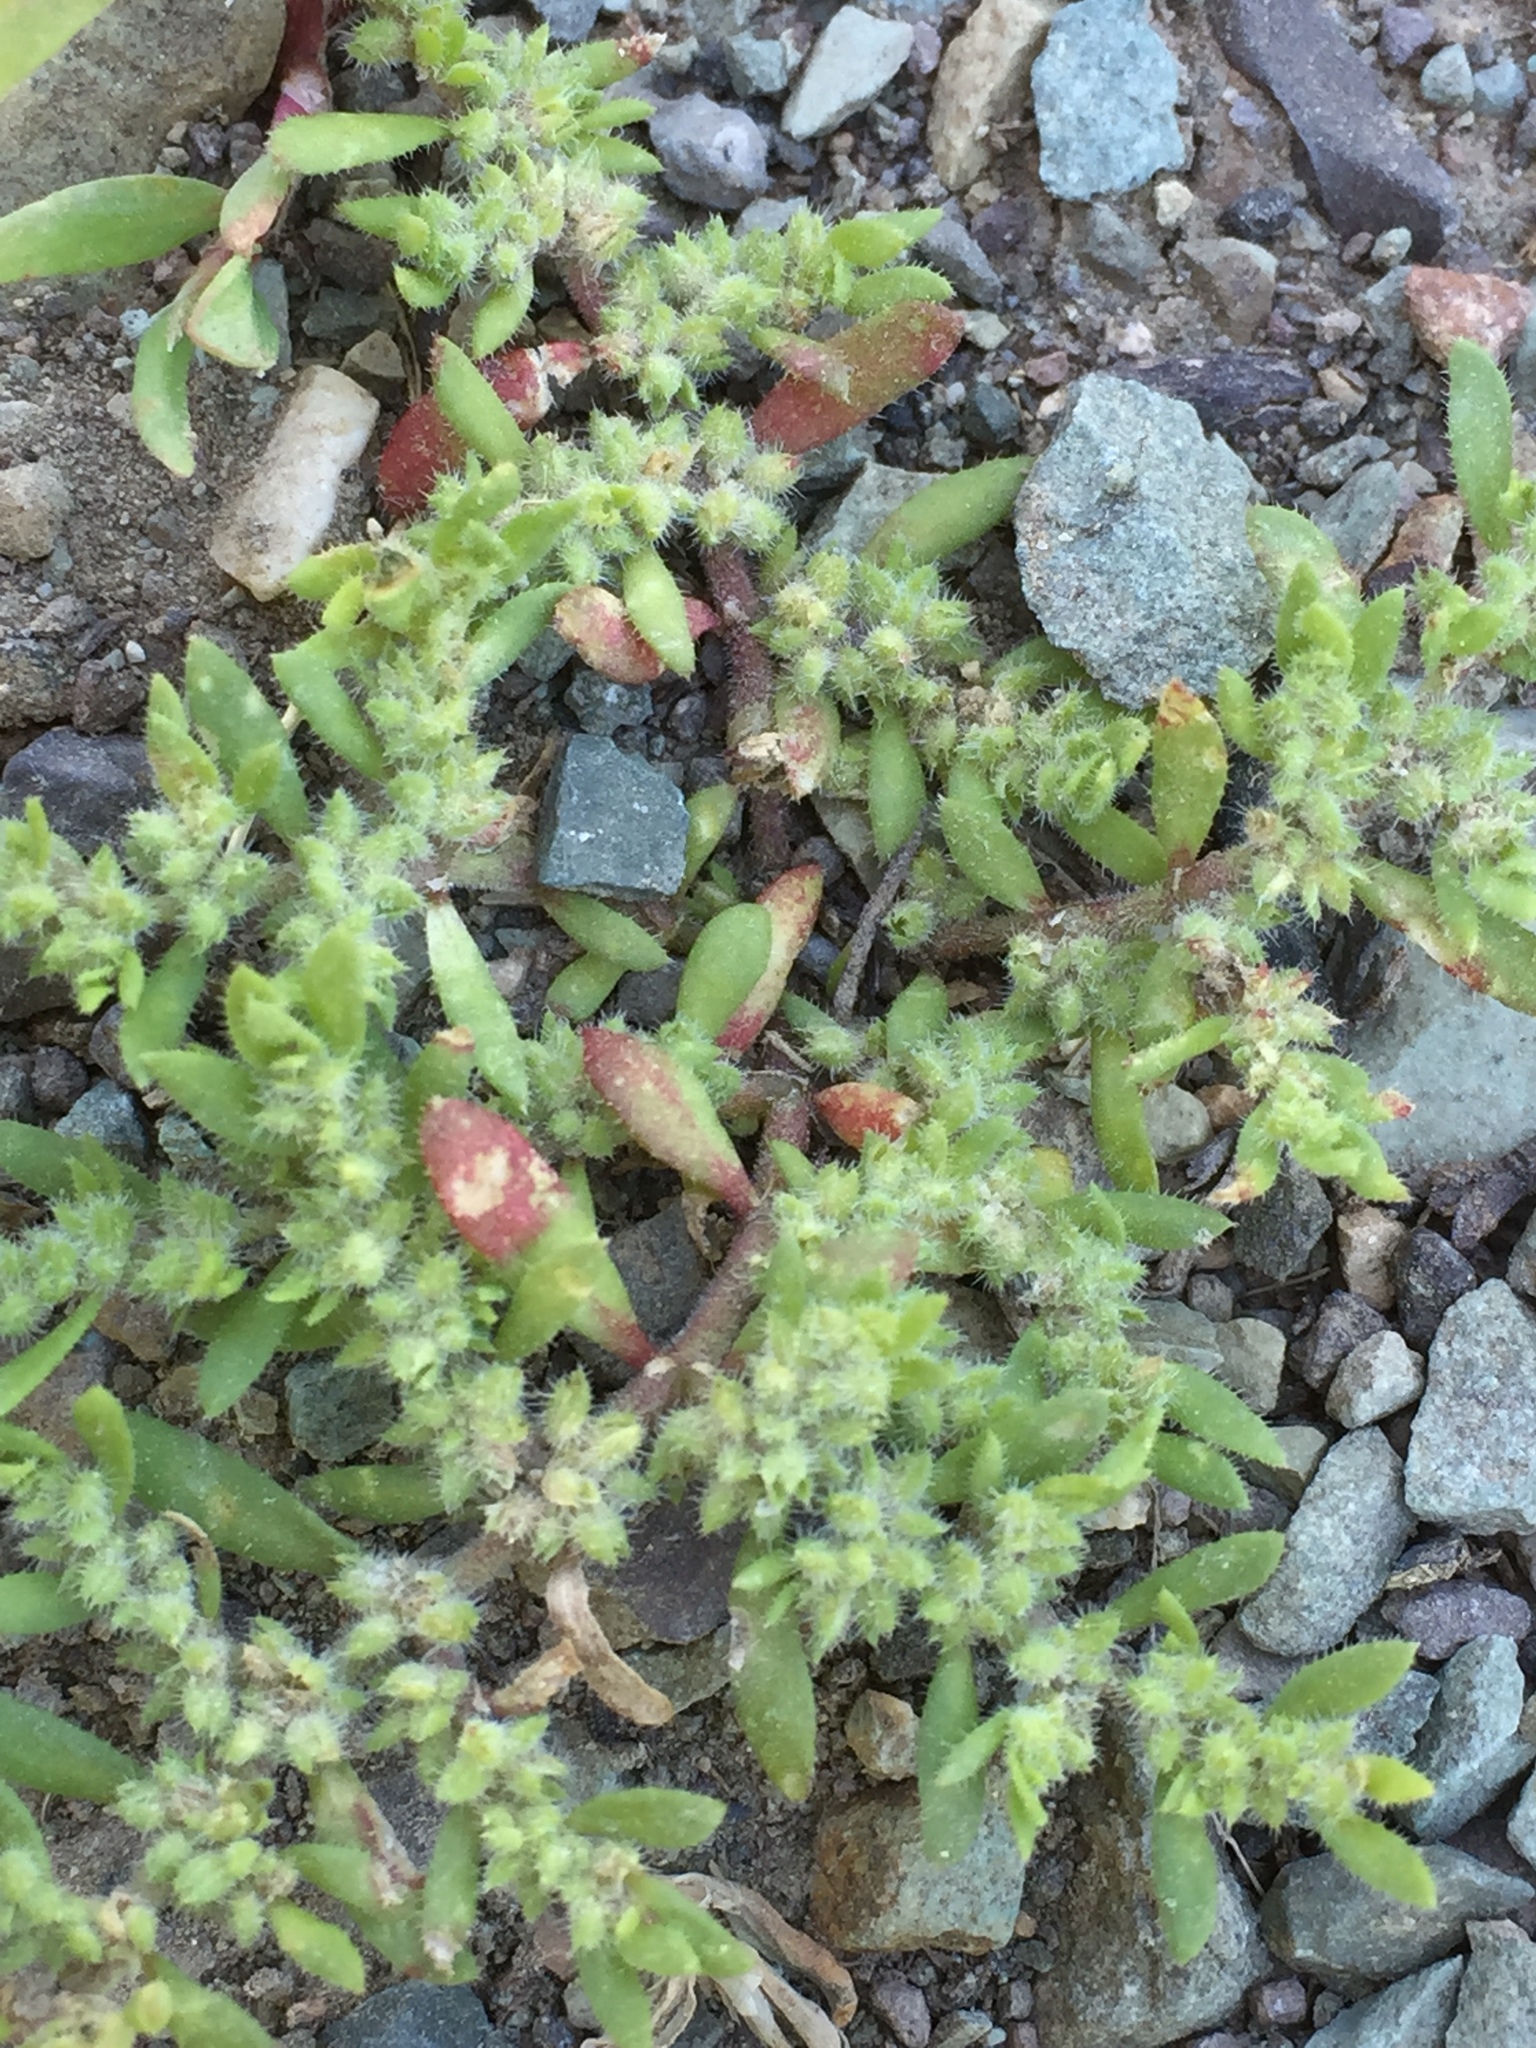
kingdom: Plantae
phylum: Tracheophyta
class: Magnoliopsida
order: Caryophyllales
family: Caryophyllaceae
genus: Herniaria
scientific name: Herniaria hirsuta
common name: Hairy rupturewort
